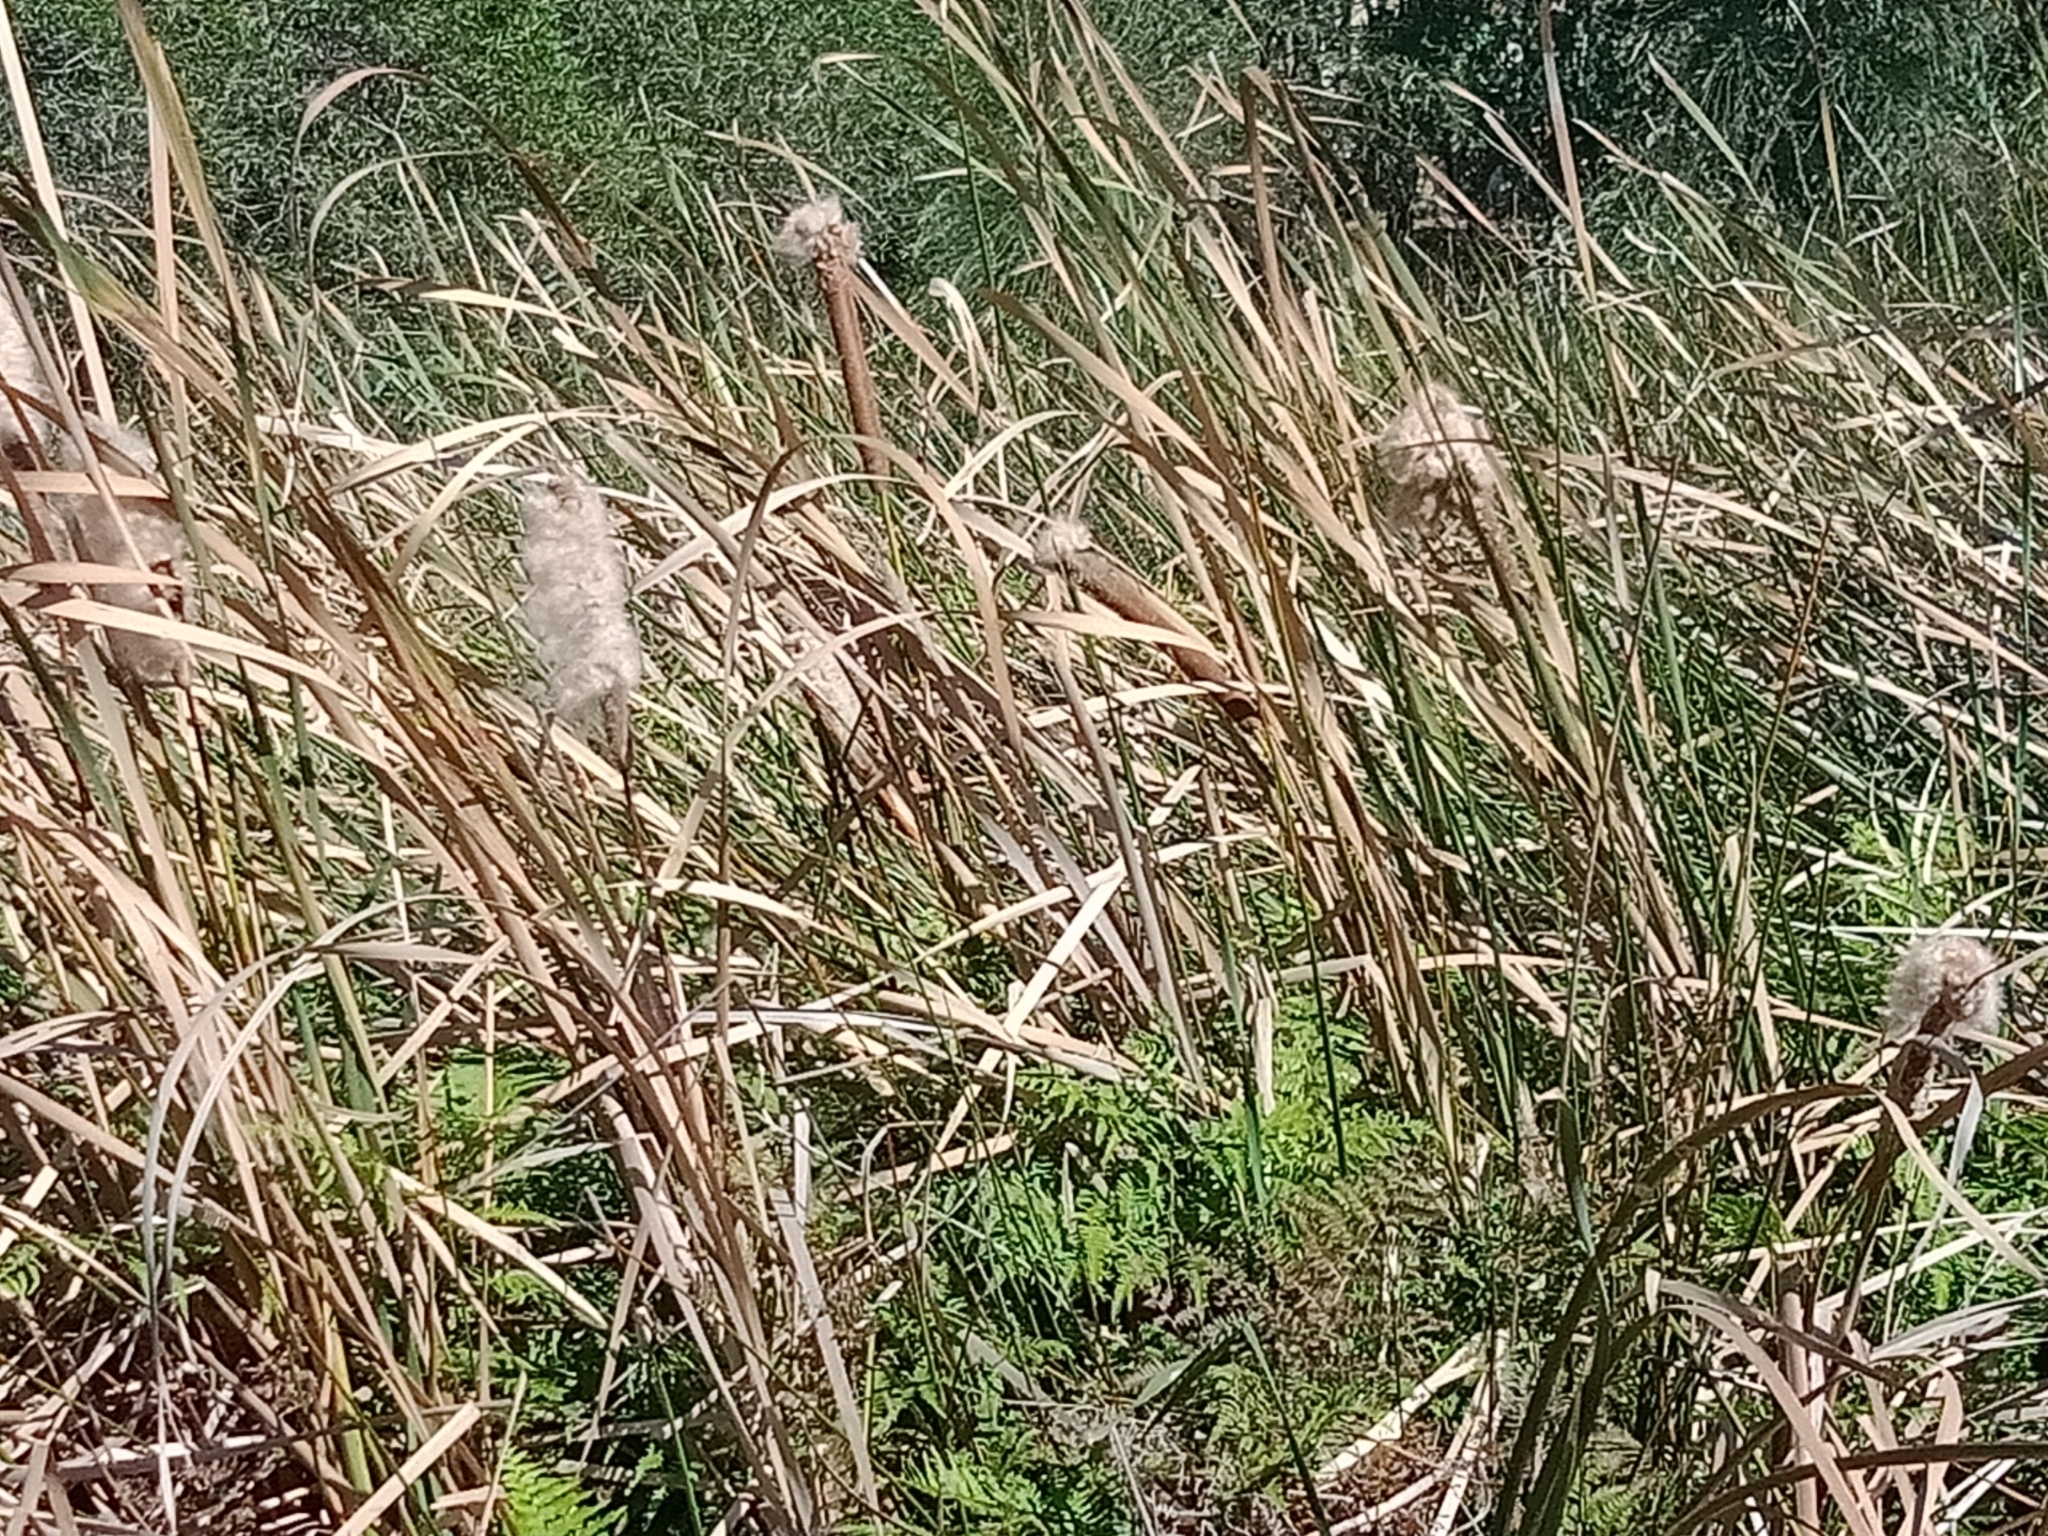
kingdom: Plantae
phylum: Tracheophyta
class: Liliopsida
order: Poales
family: Typhaceae
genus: Typha
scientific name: Typha orientalis
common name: Bullrush
